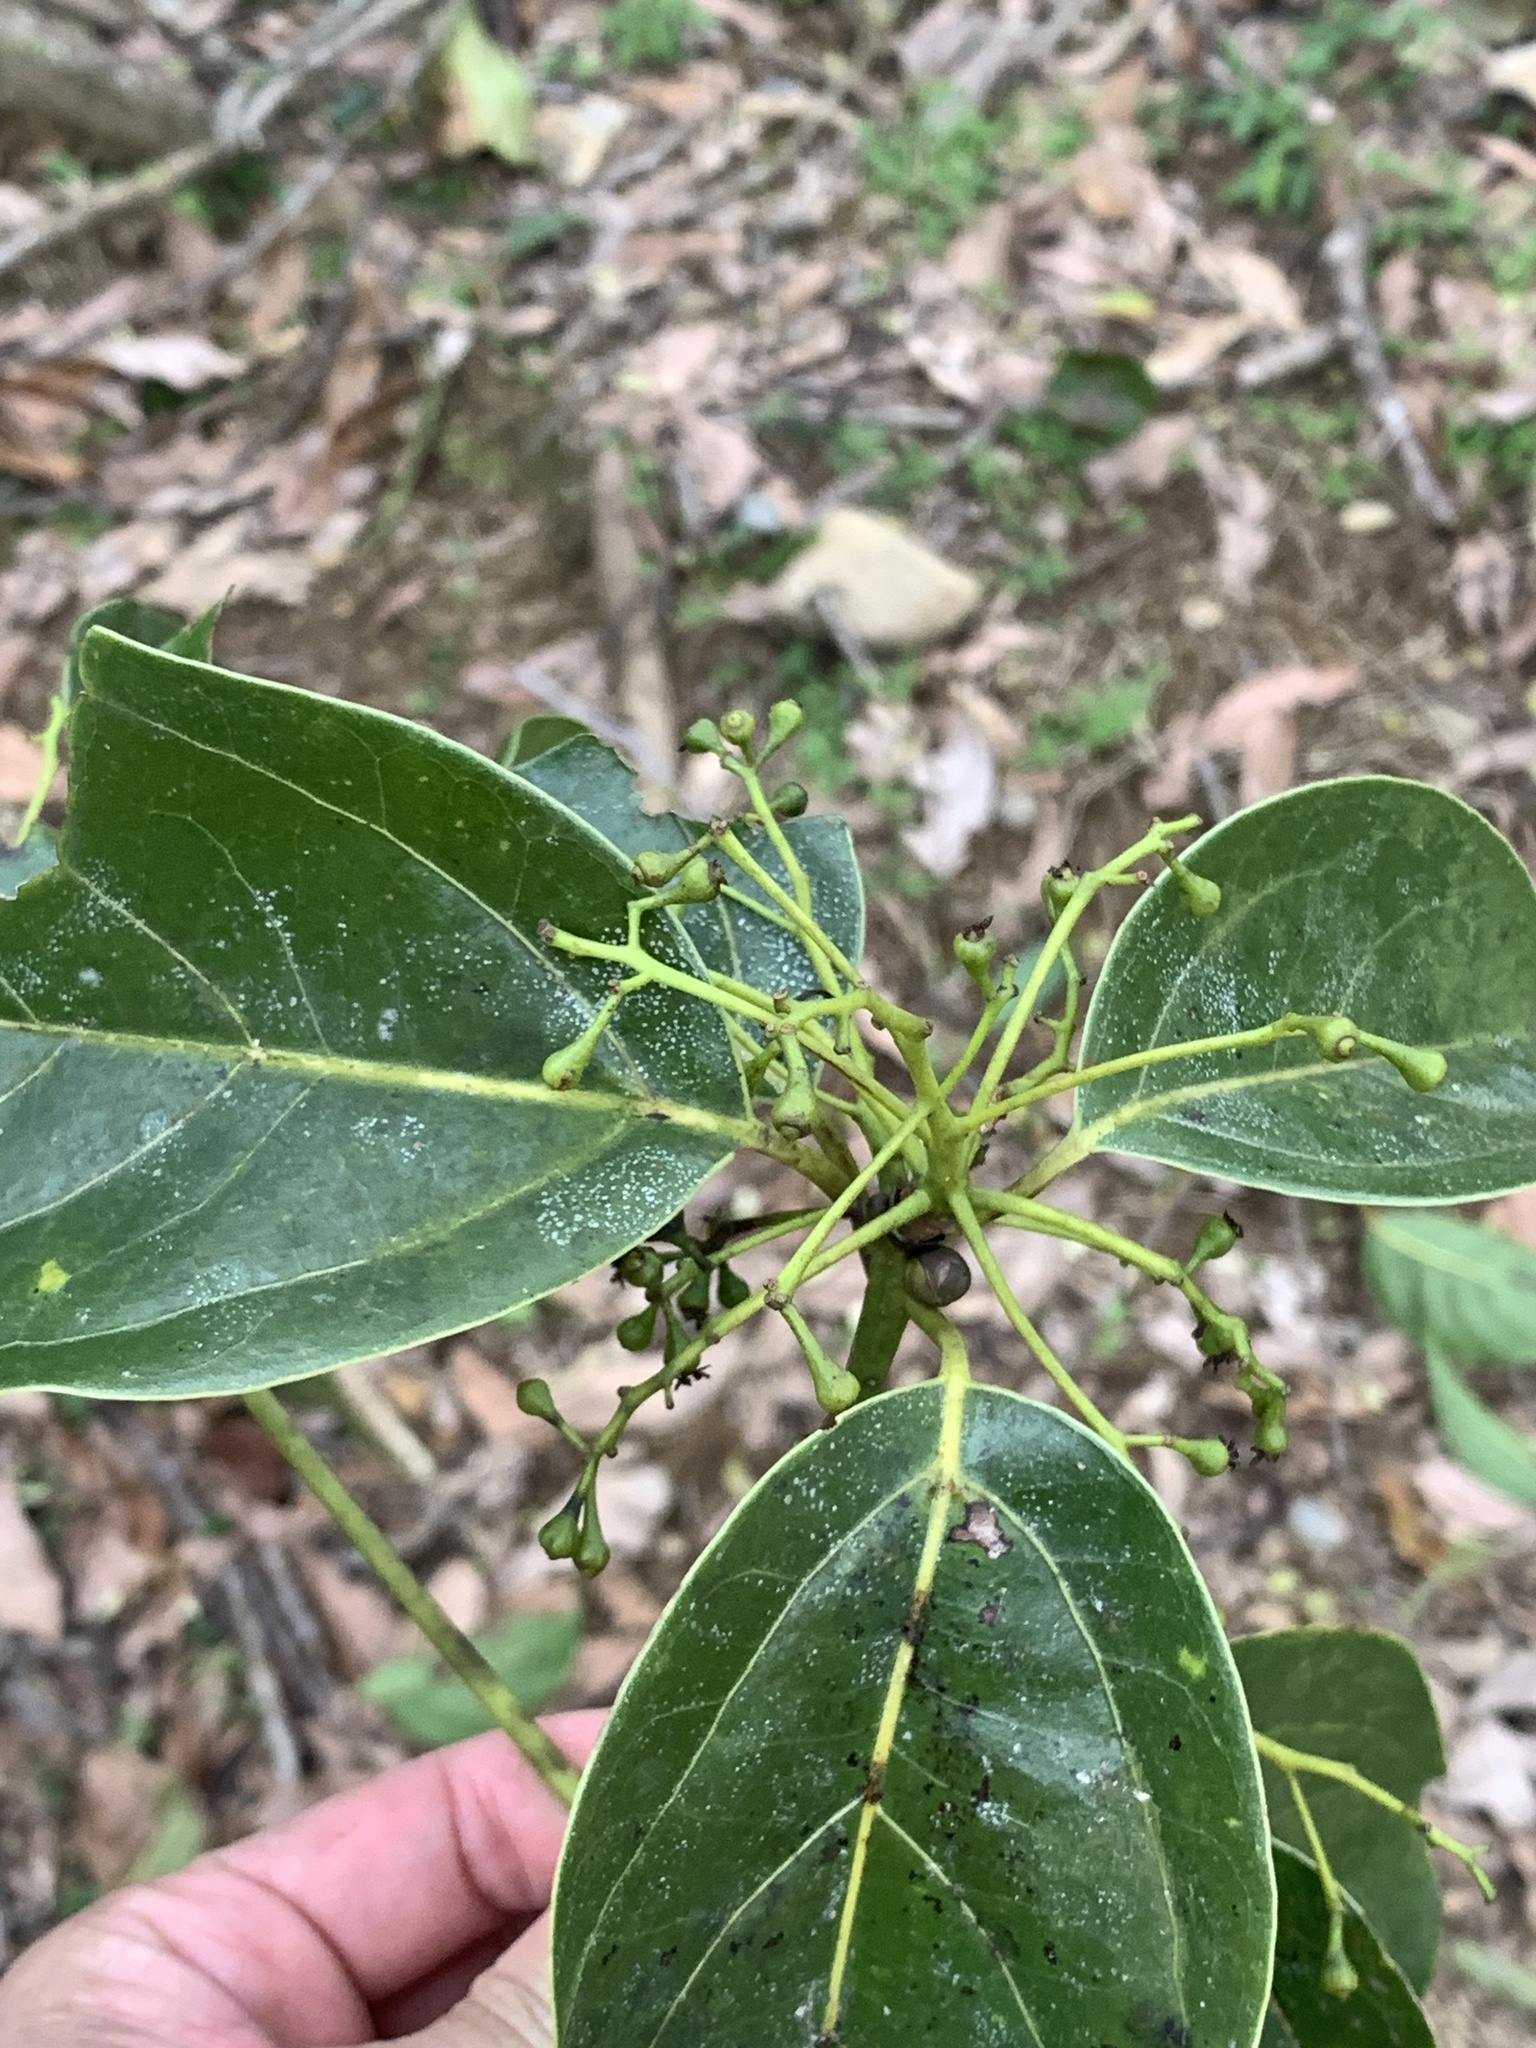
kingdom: Plantae
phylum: Tracheophyta
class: Magnoliopsida
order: Laurales
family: Lauraceae
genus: Cinnamomum
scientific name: Cinnamomum micranthum
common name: Chinese-sassafras
